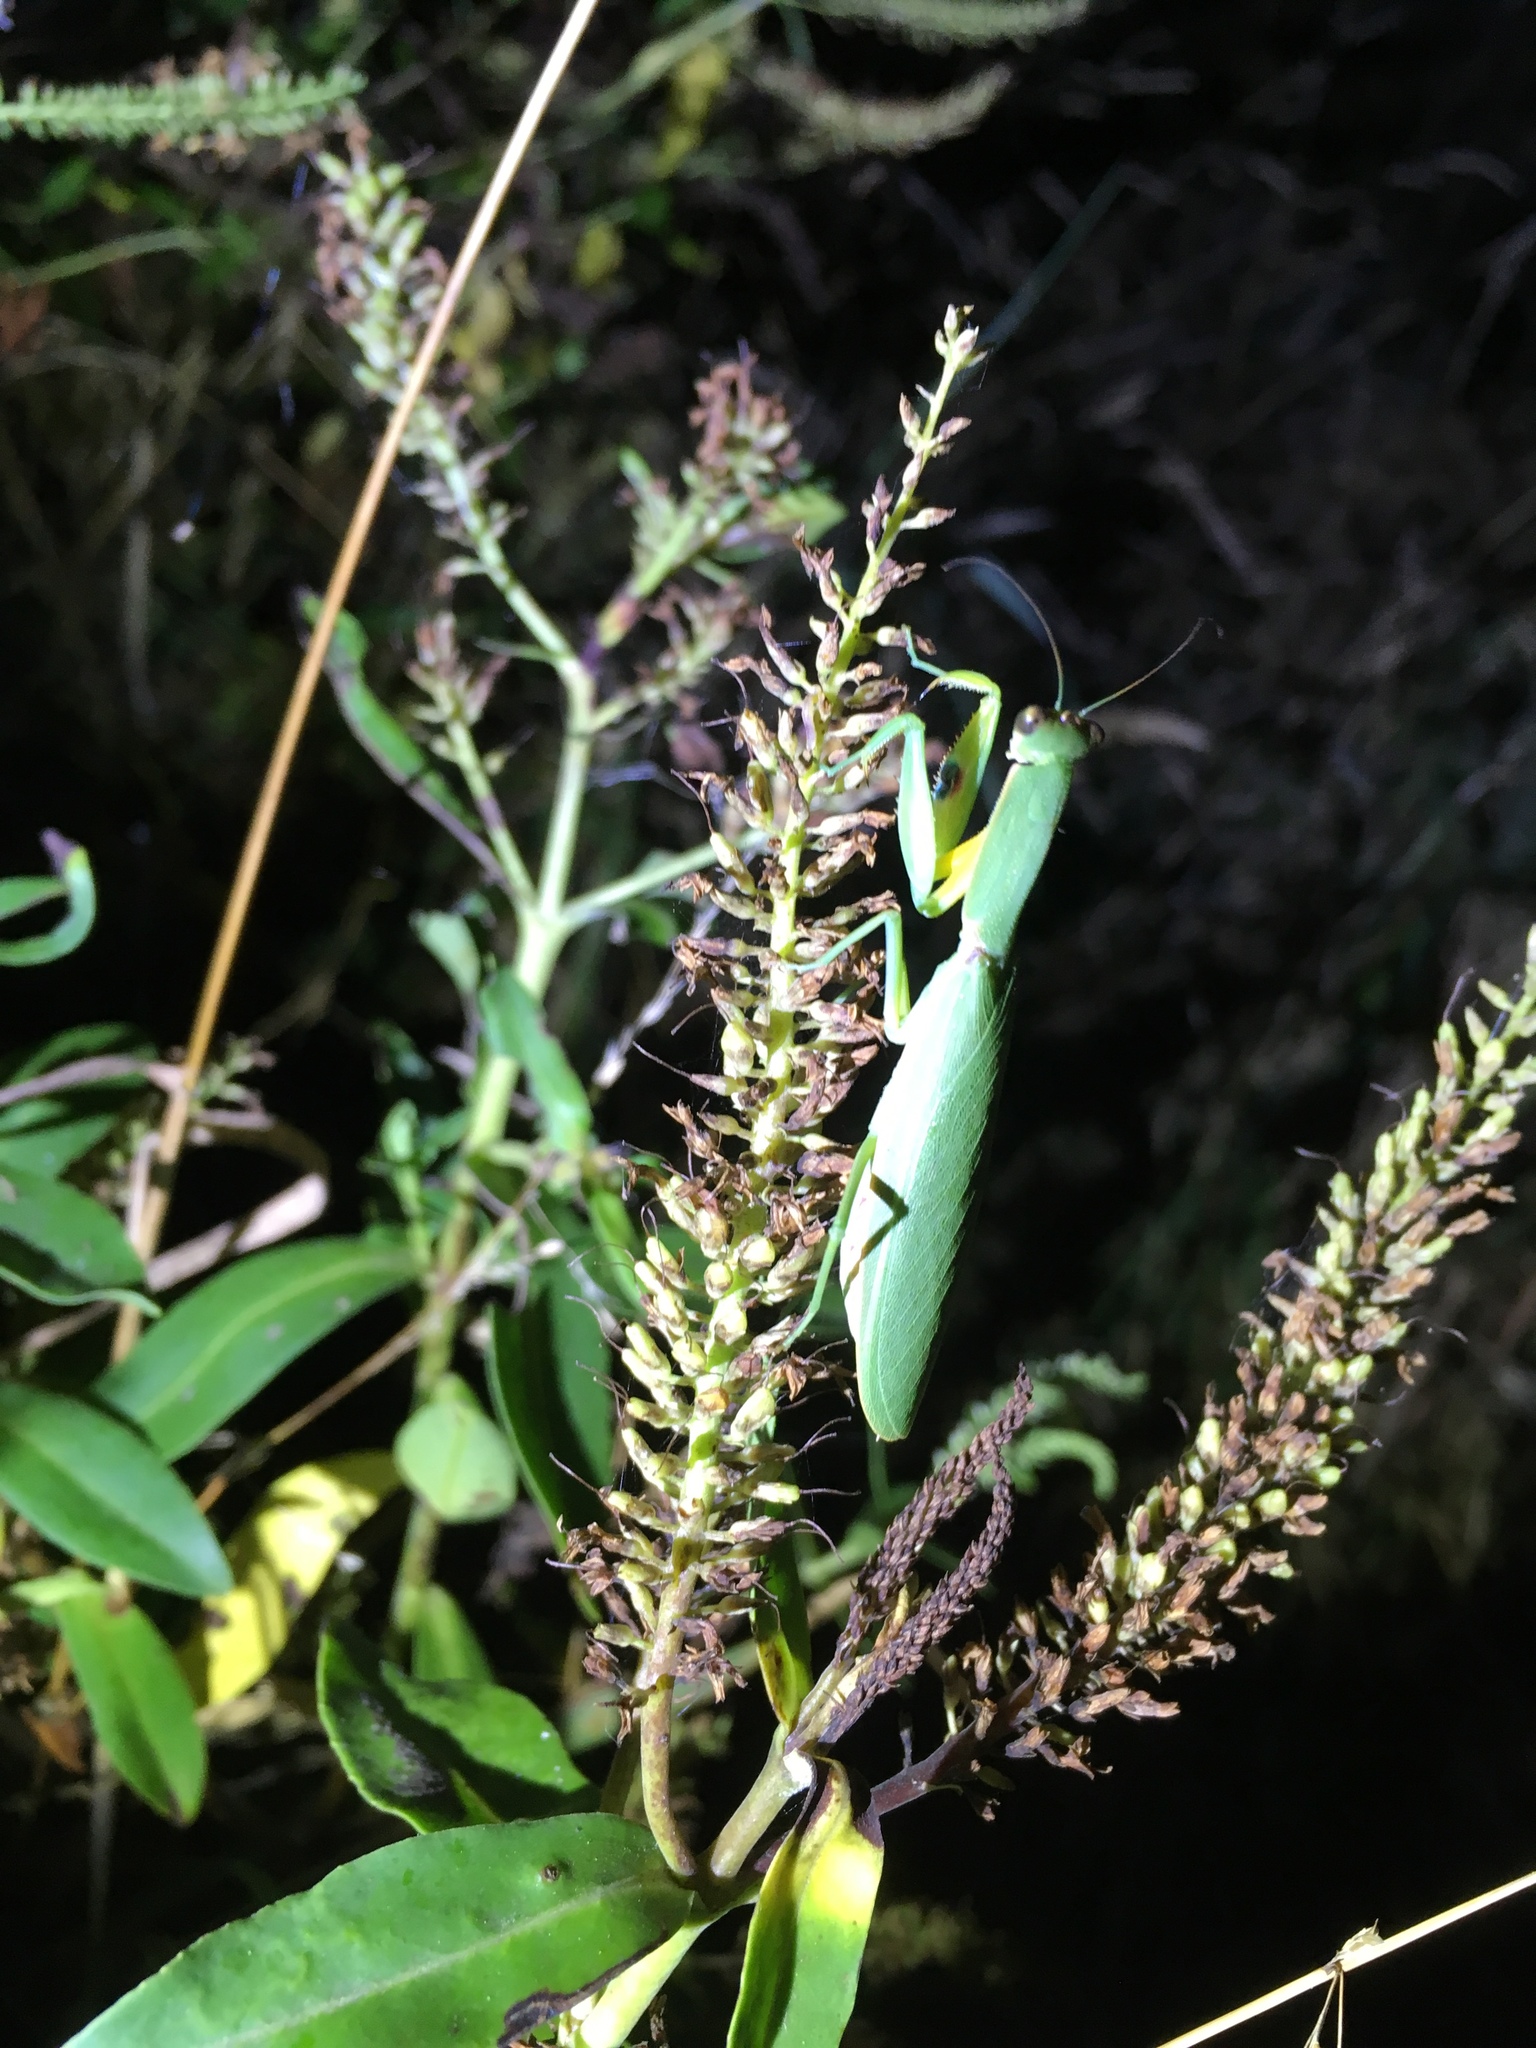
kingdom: Animalia
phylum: Arthropoda
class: Insecta
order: Mantodea
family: Mantidae
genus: Orthodera
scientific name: Orthodera novaezealandiae
